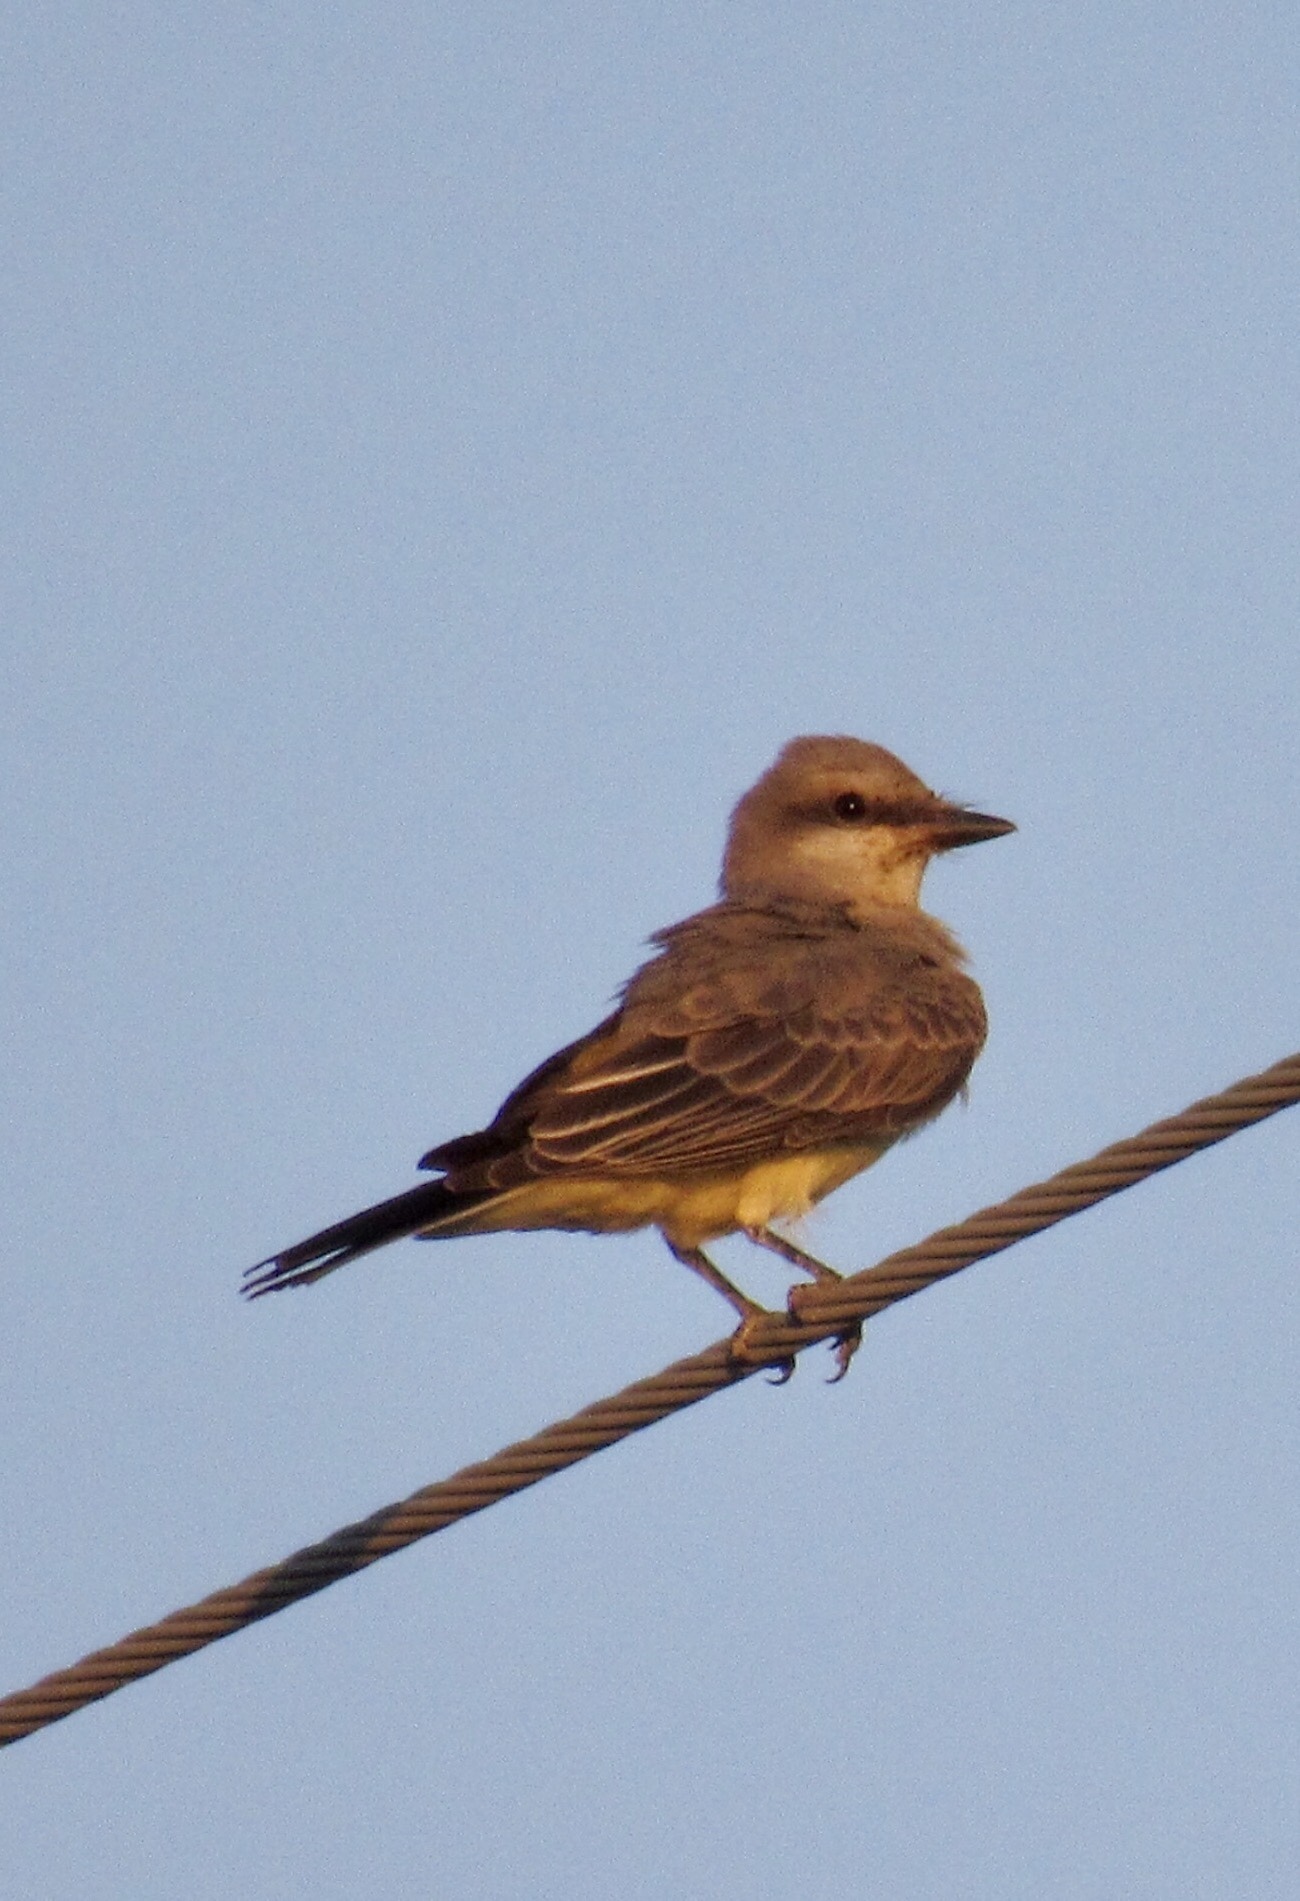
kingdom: Animalia
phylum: Chordata
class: Aves
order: Passeriformes
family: Tyrannidae
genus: Tyrannus
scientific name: Tyrannus verticalis
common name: Western kingbird
